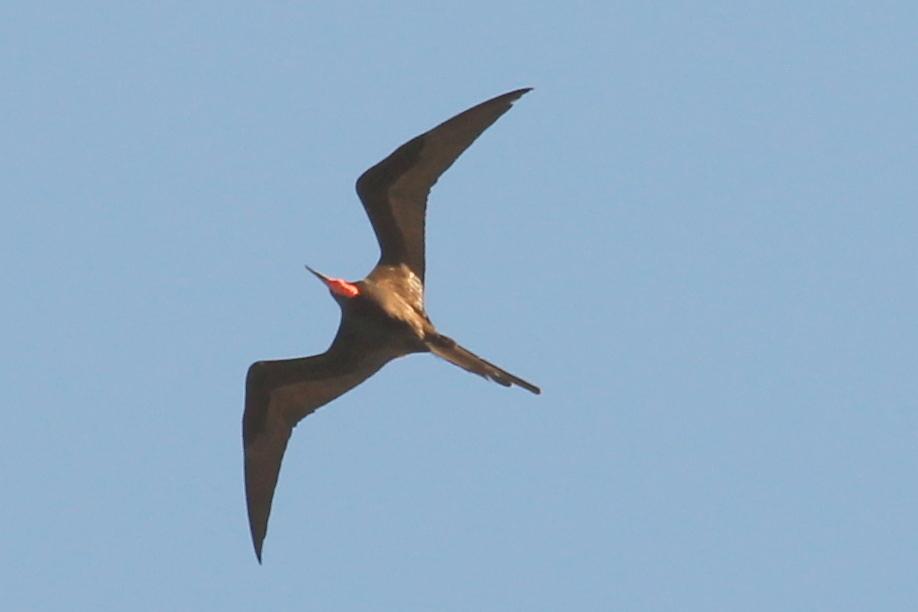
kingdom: Animalia
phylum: Chordata
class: Aves
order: Suliformes
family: Fregatidae
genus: Fregata
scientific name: Fregata magnificens
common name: Magnificent frigatebird
